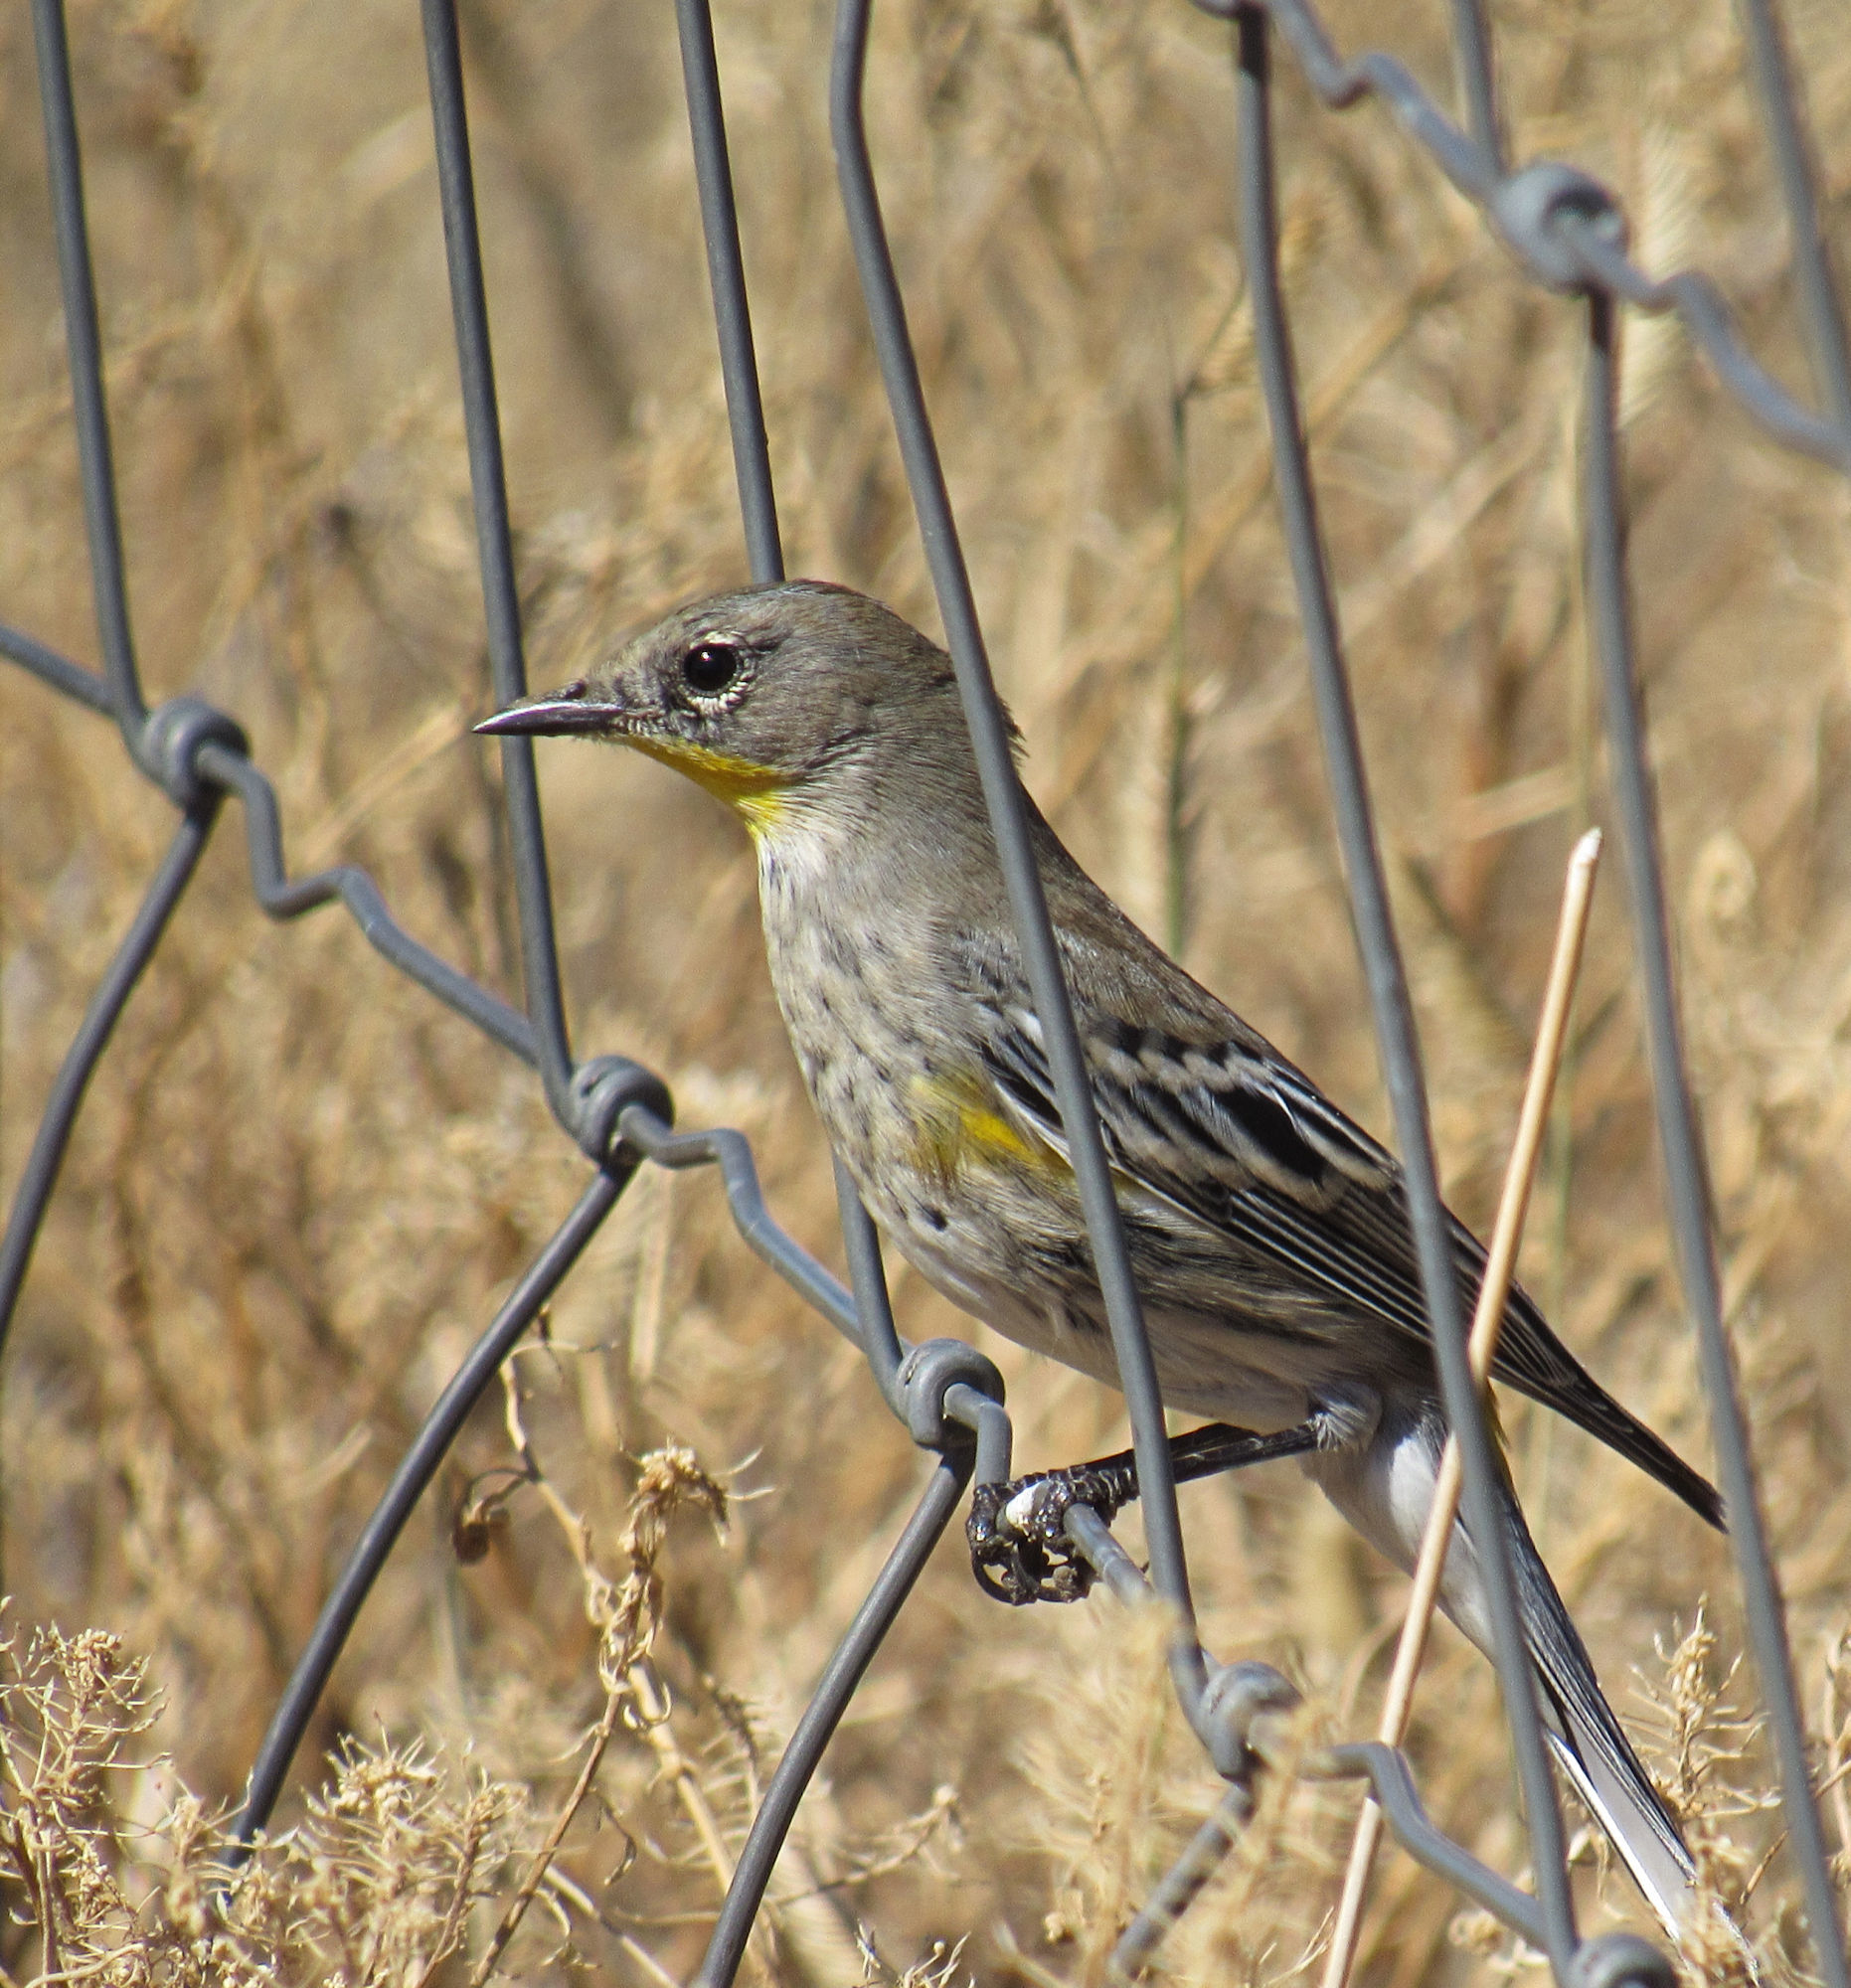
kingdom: Animalia
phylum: Chordata
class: Aves
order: Passeriformes
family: Parulidae
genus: Setophaga
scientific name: Setophaga coronata
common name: Myrtle warbler
